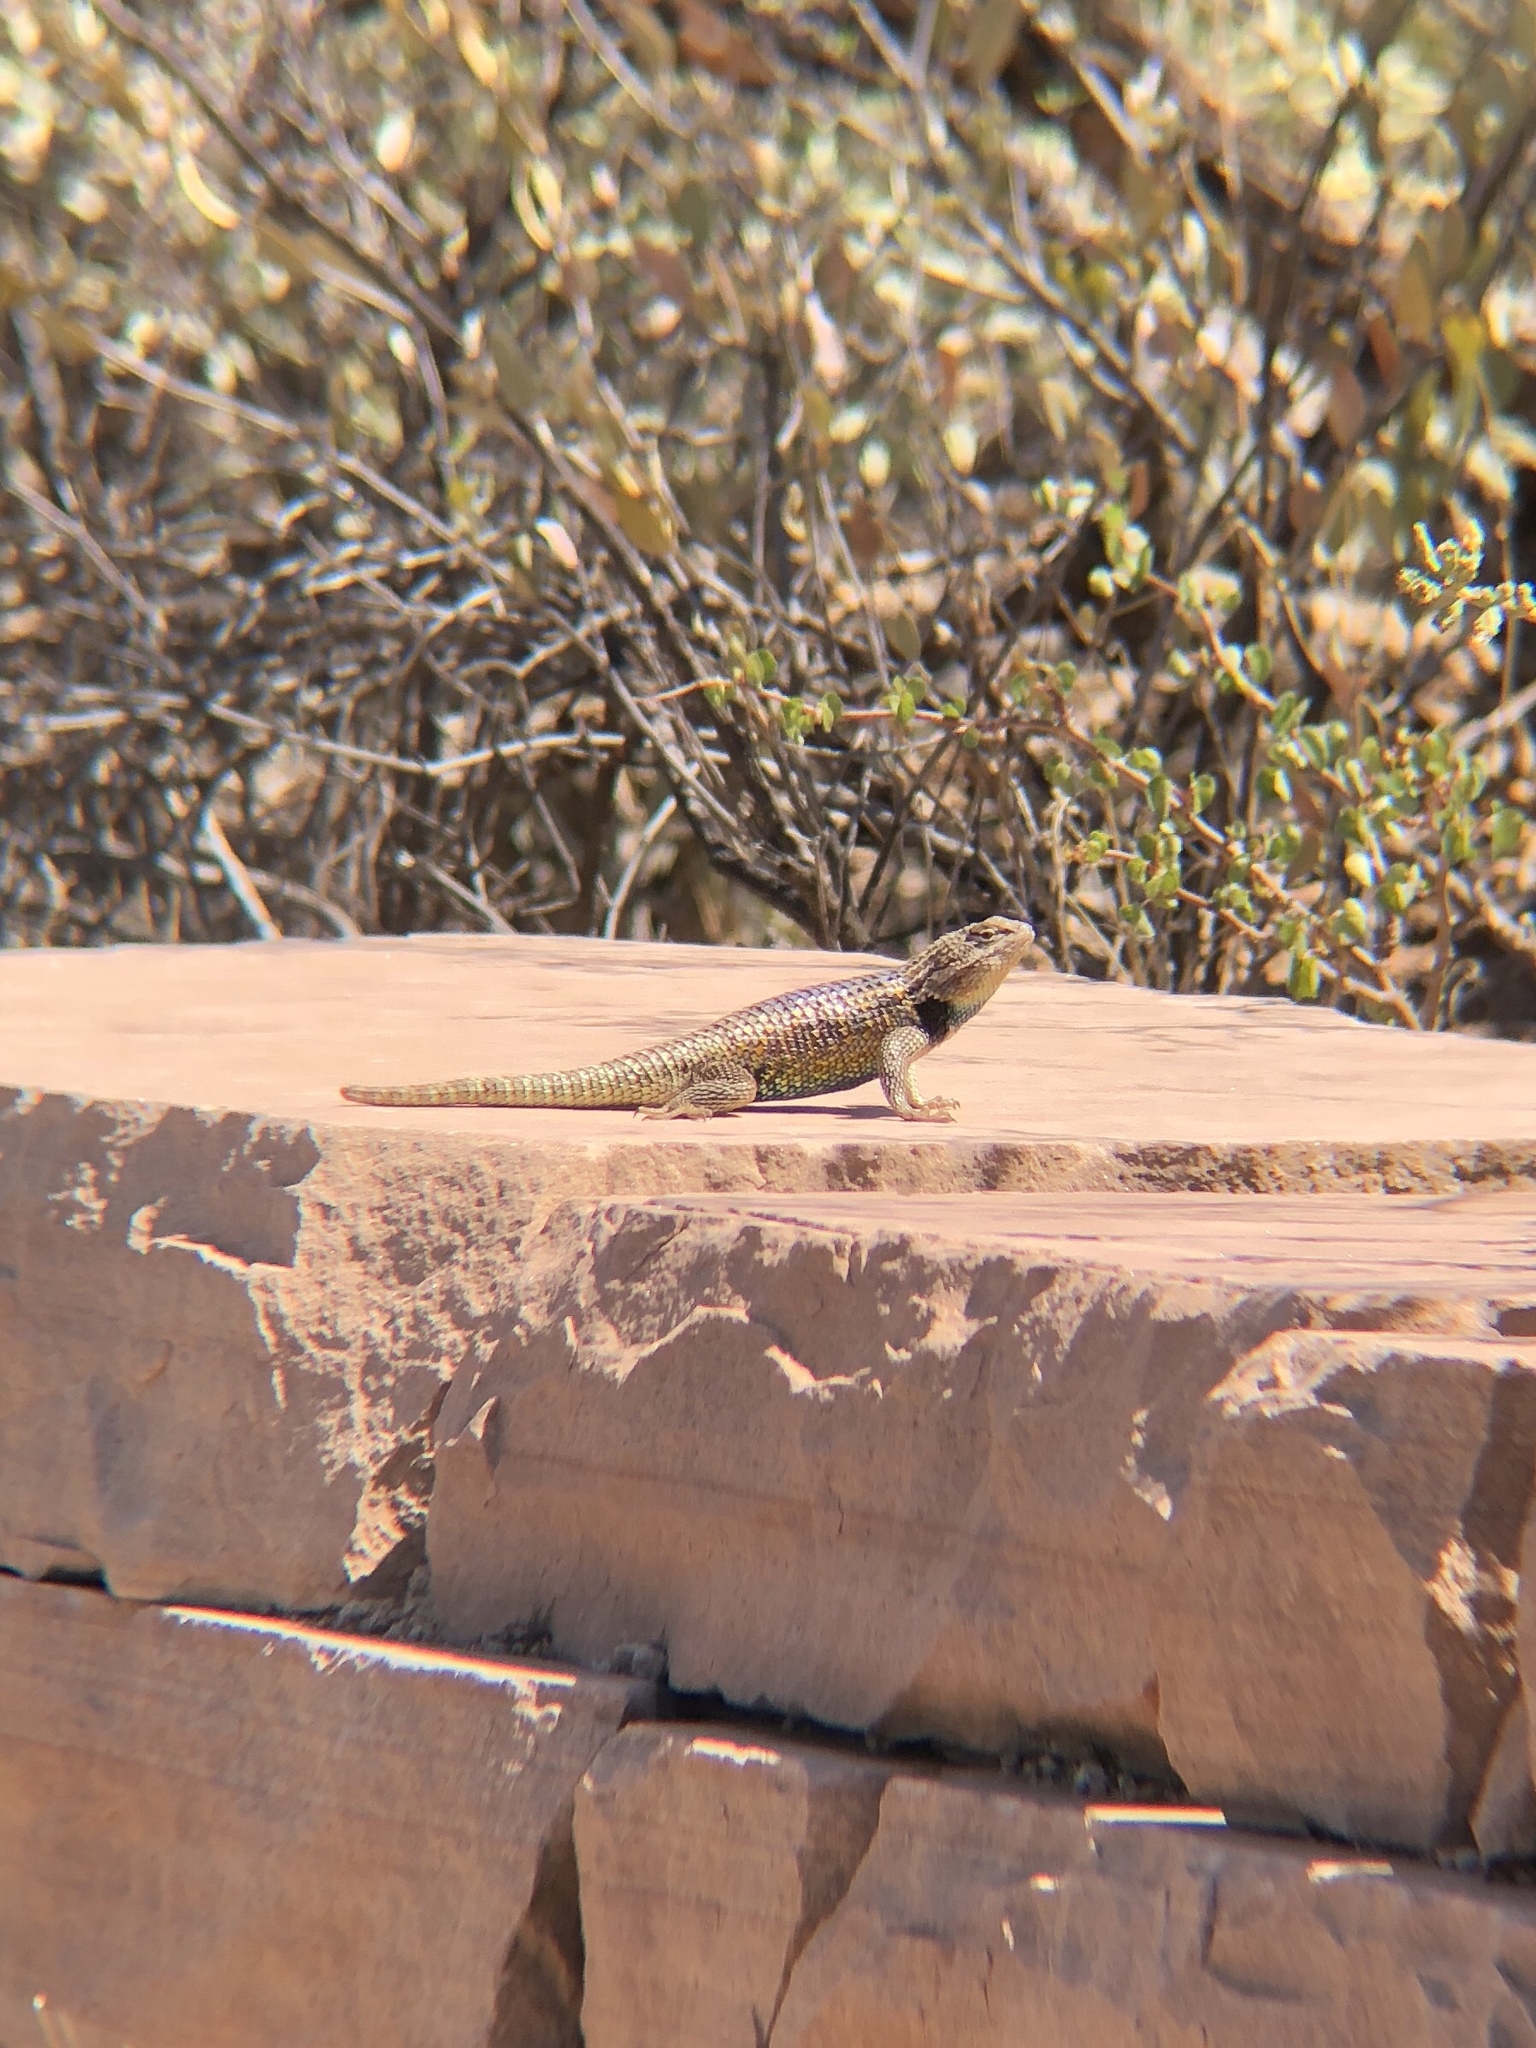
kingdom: Animalia
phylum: Chordata
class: Squamata
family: Phrynosomatidae
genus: Sceloporus
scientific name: Sceloporus magister
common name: Desert spiny lizard
